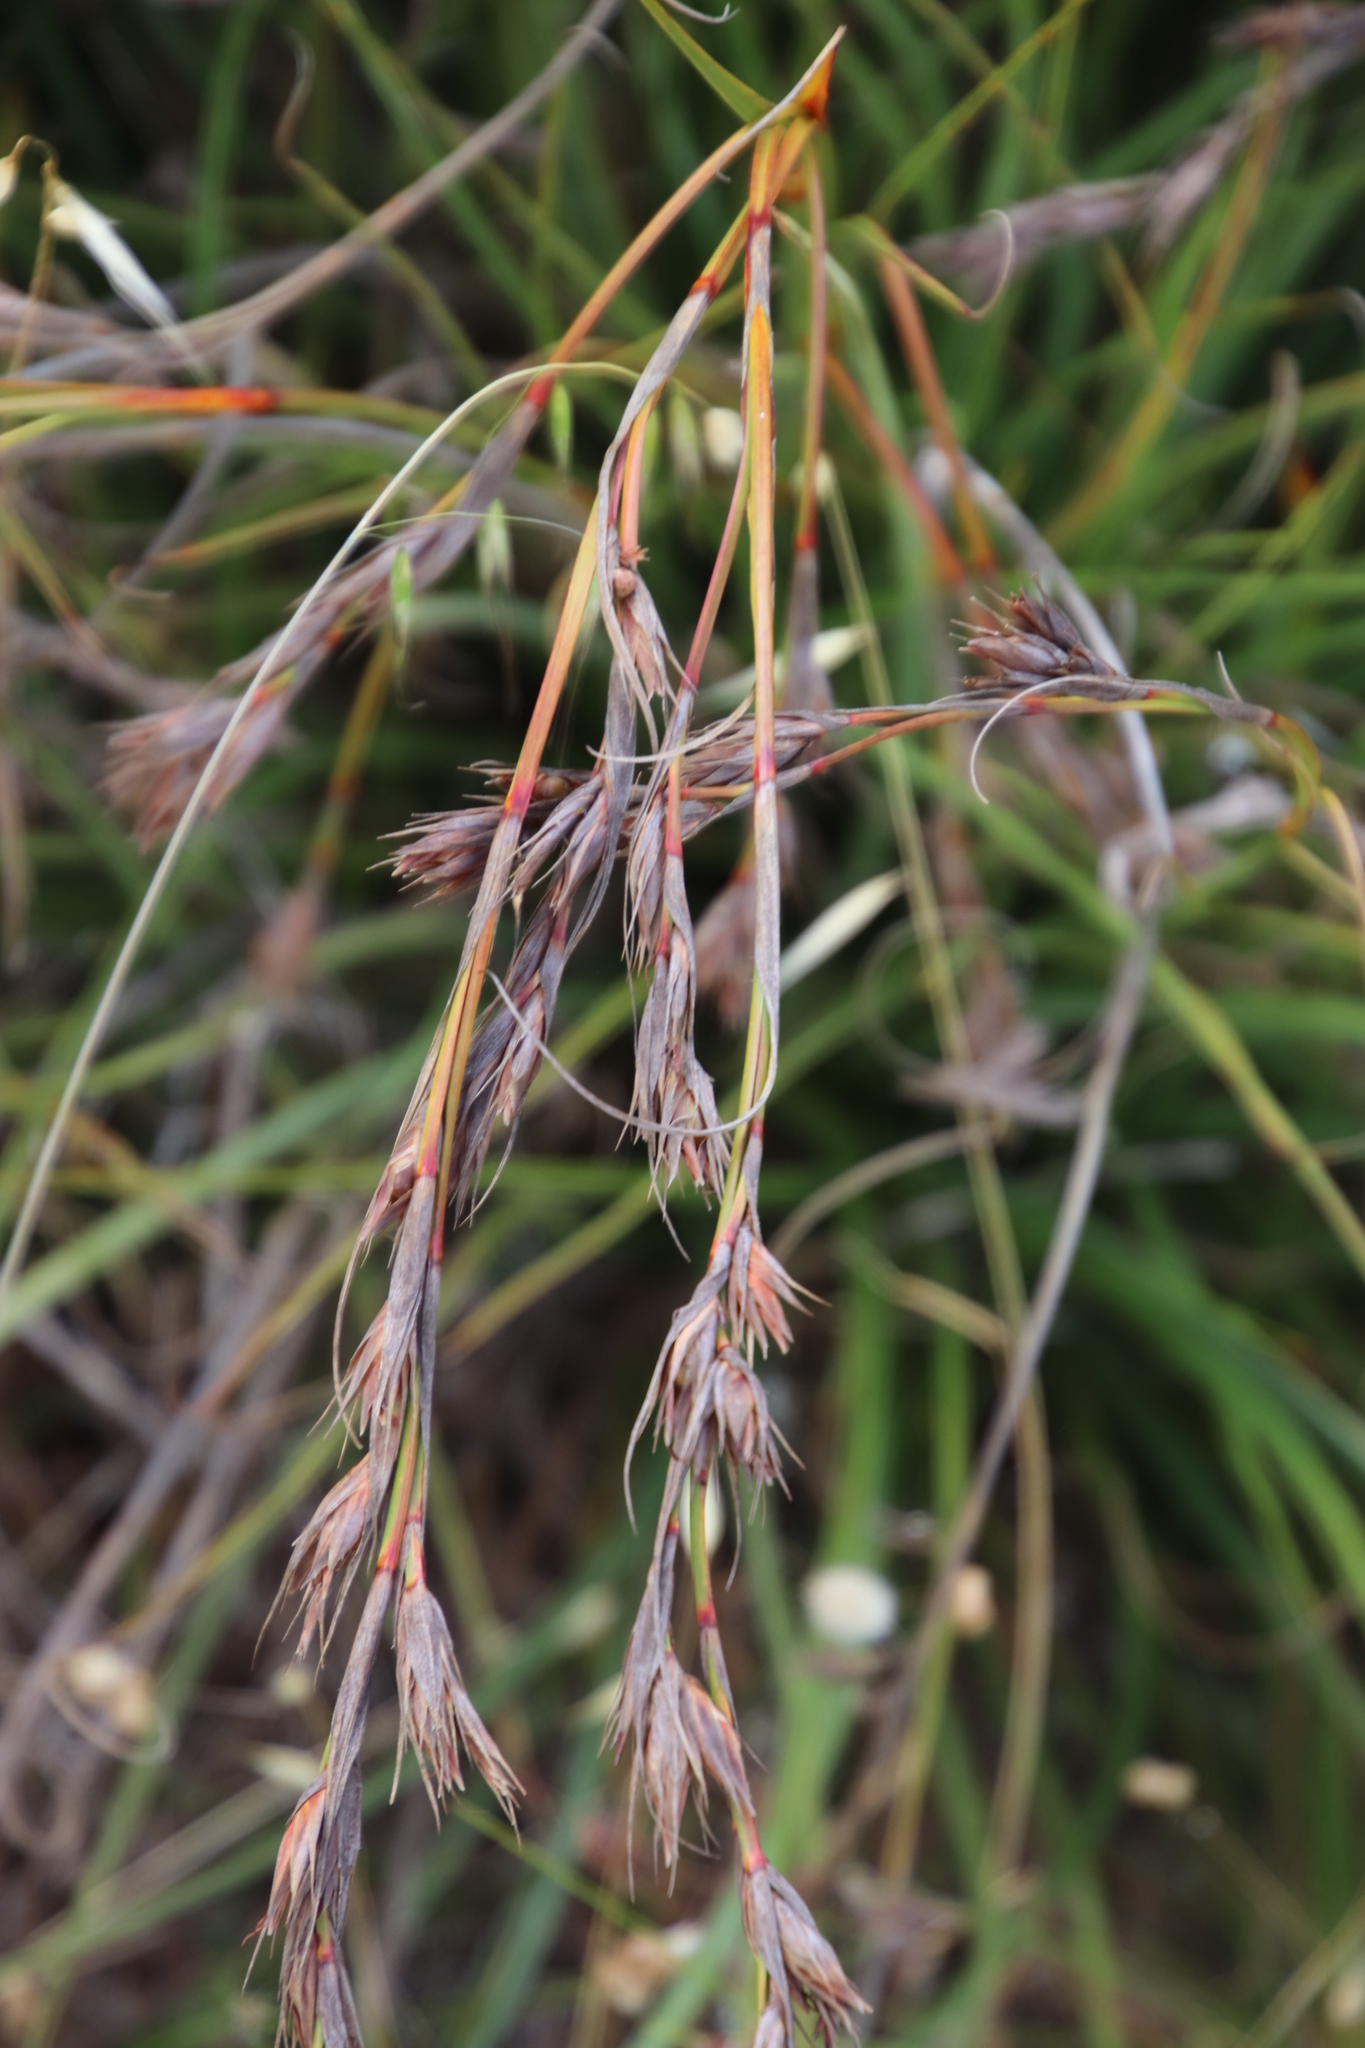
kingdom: Plantae
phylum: Tracheophyta
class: Liliopsida
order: Poales
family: Cyperaceae
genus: Tetraria
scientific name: Tetraria eximia
